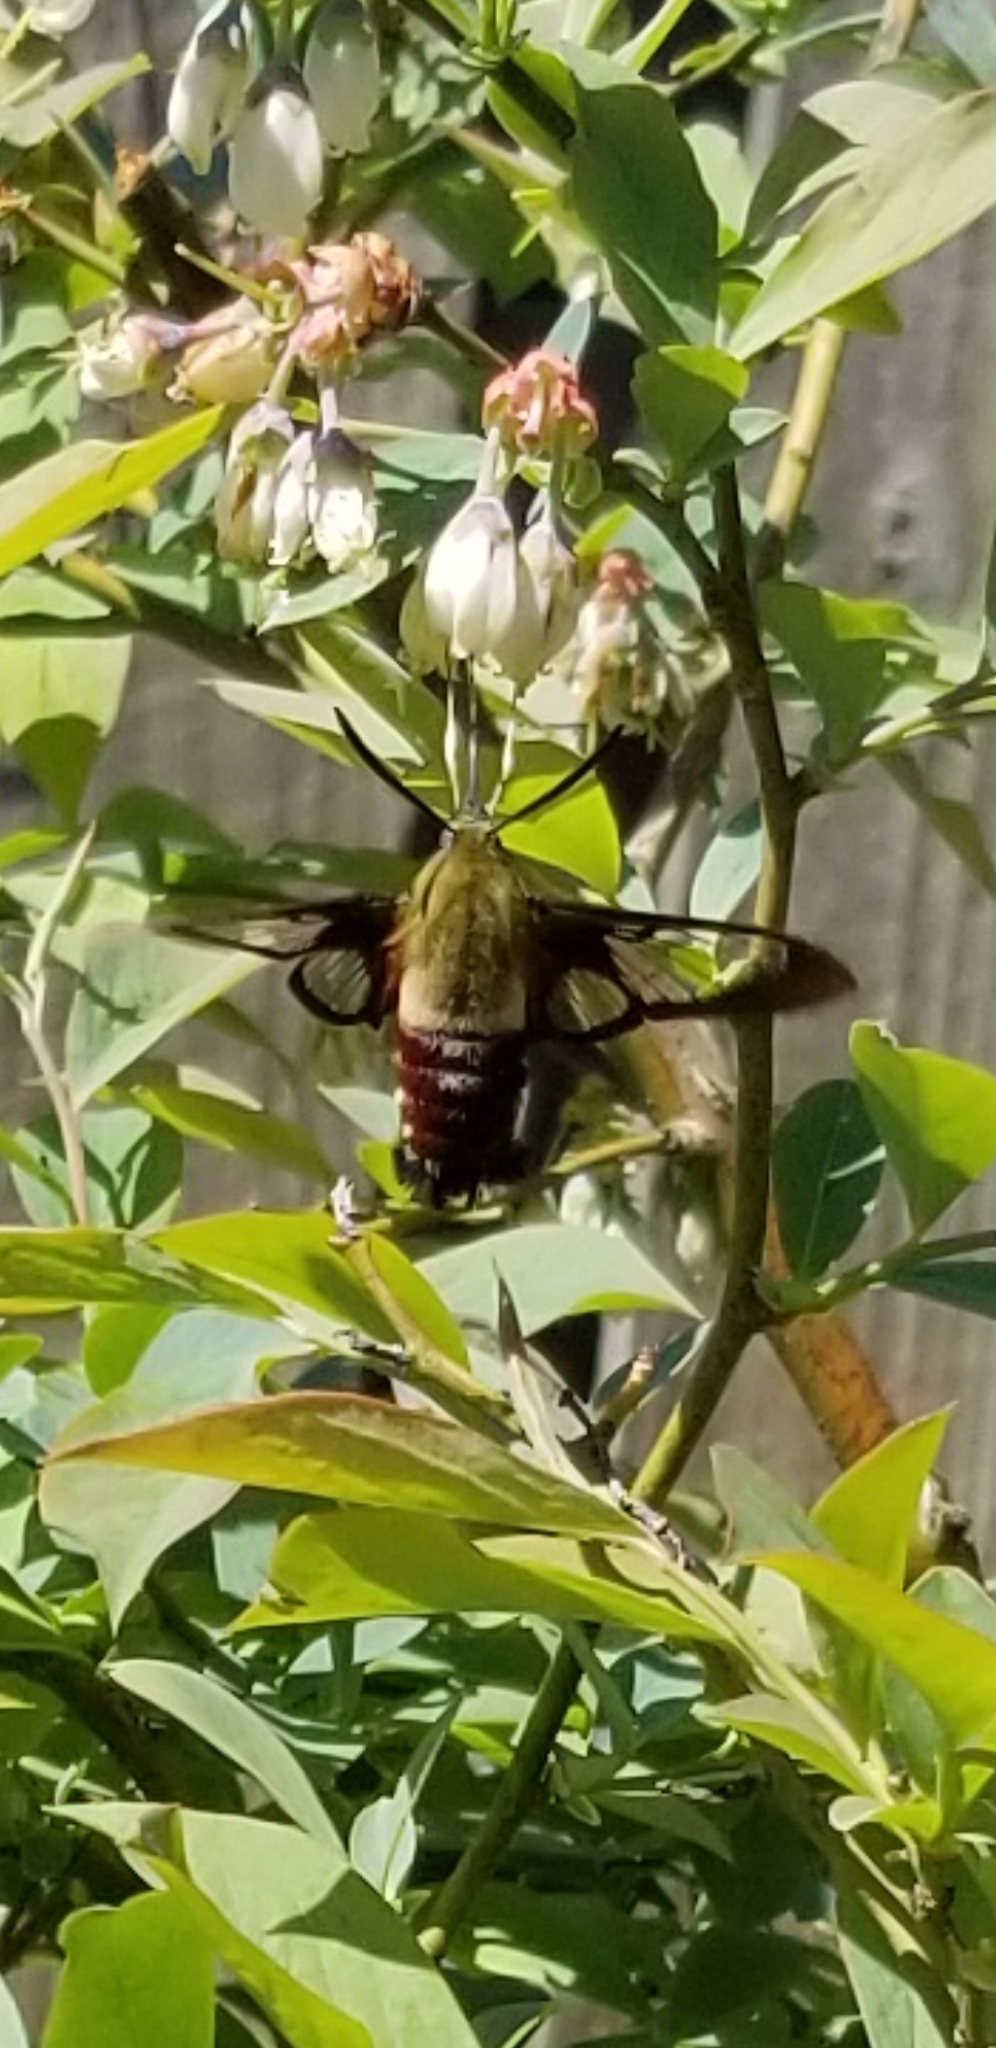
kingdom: Animalia
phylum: Arthropoda
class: Insecta
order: Lepidoptera
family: Sphingidae
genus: Hemaris
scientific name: Hemaris thysbe
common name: Common clear-wing
